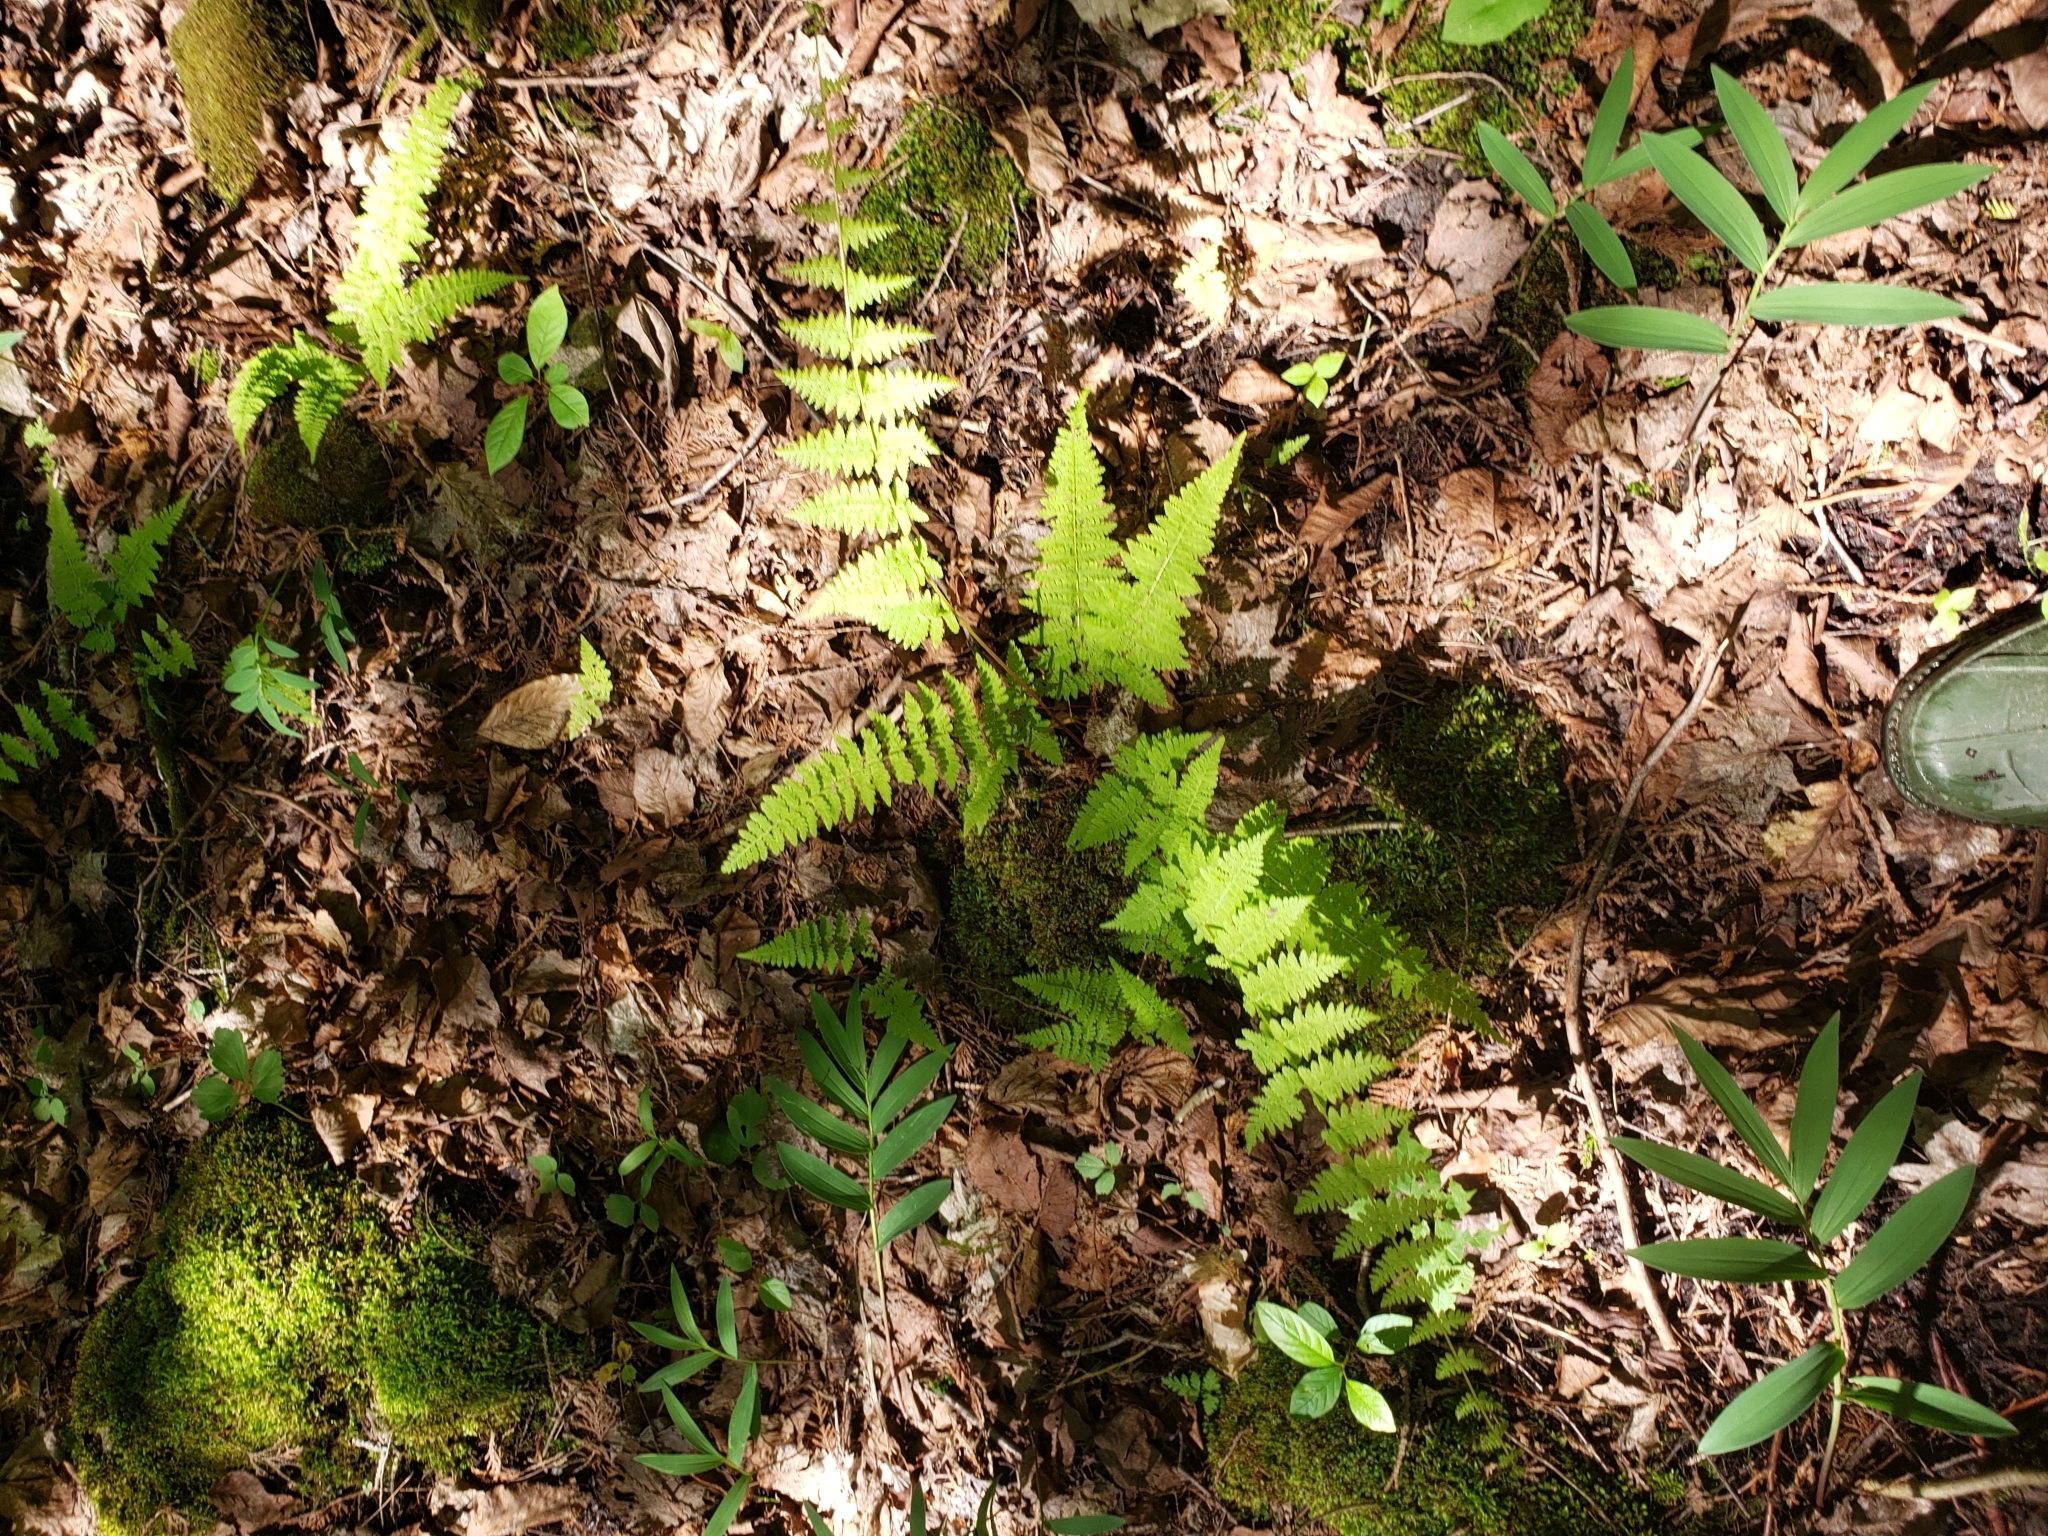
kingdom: Plantae
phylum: Tracheophyta
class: Polypodiopsida
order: Polypodiales
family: Cystopteridaceae
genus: Cystopteris
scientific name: Cystopteris bulbifera
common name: Bulblet bladder fern
